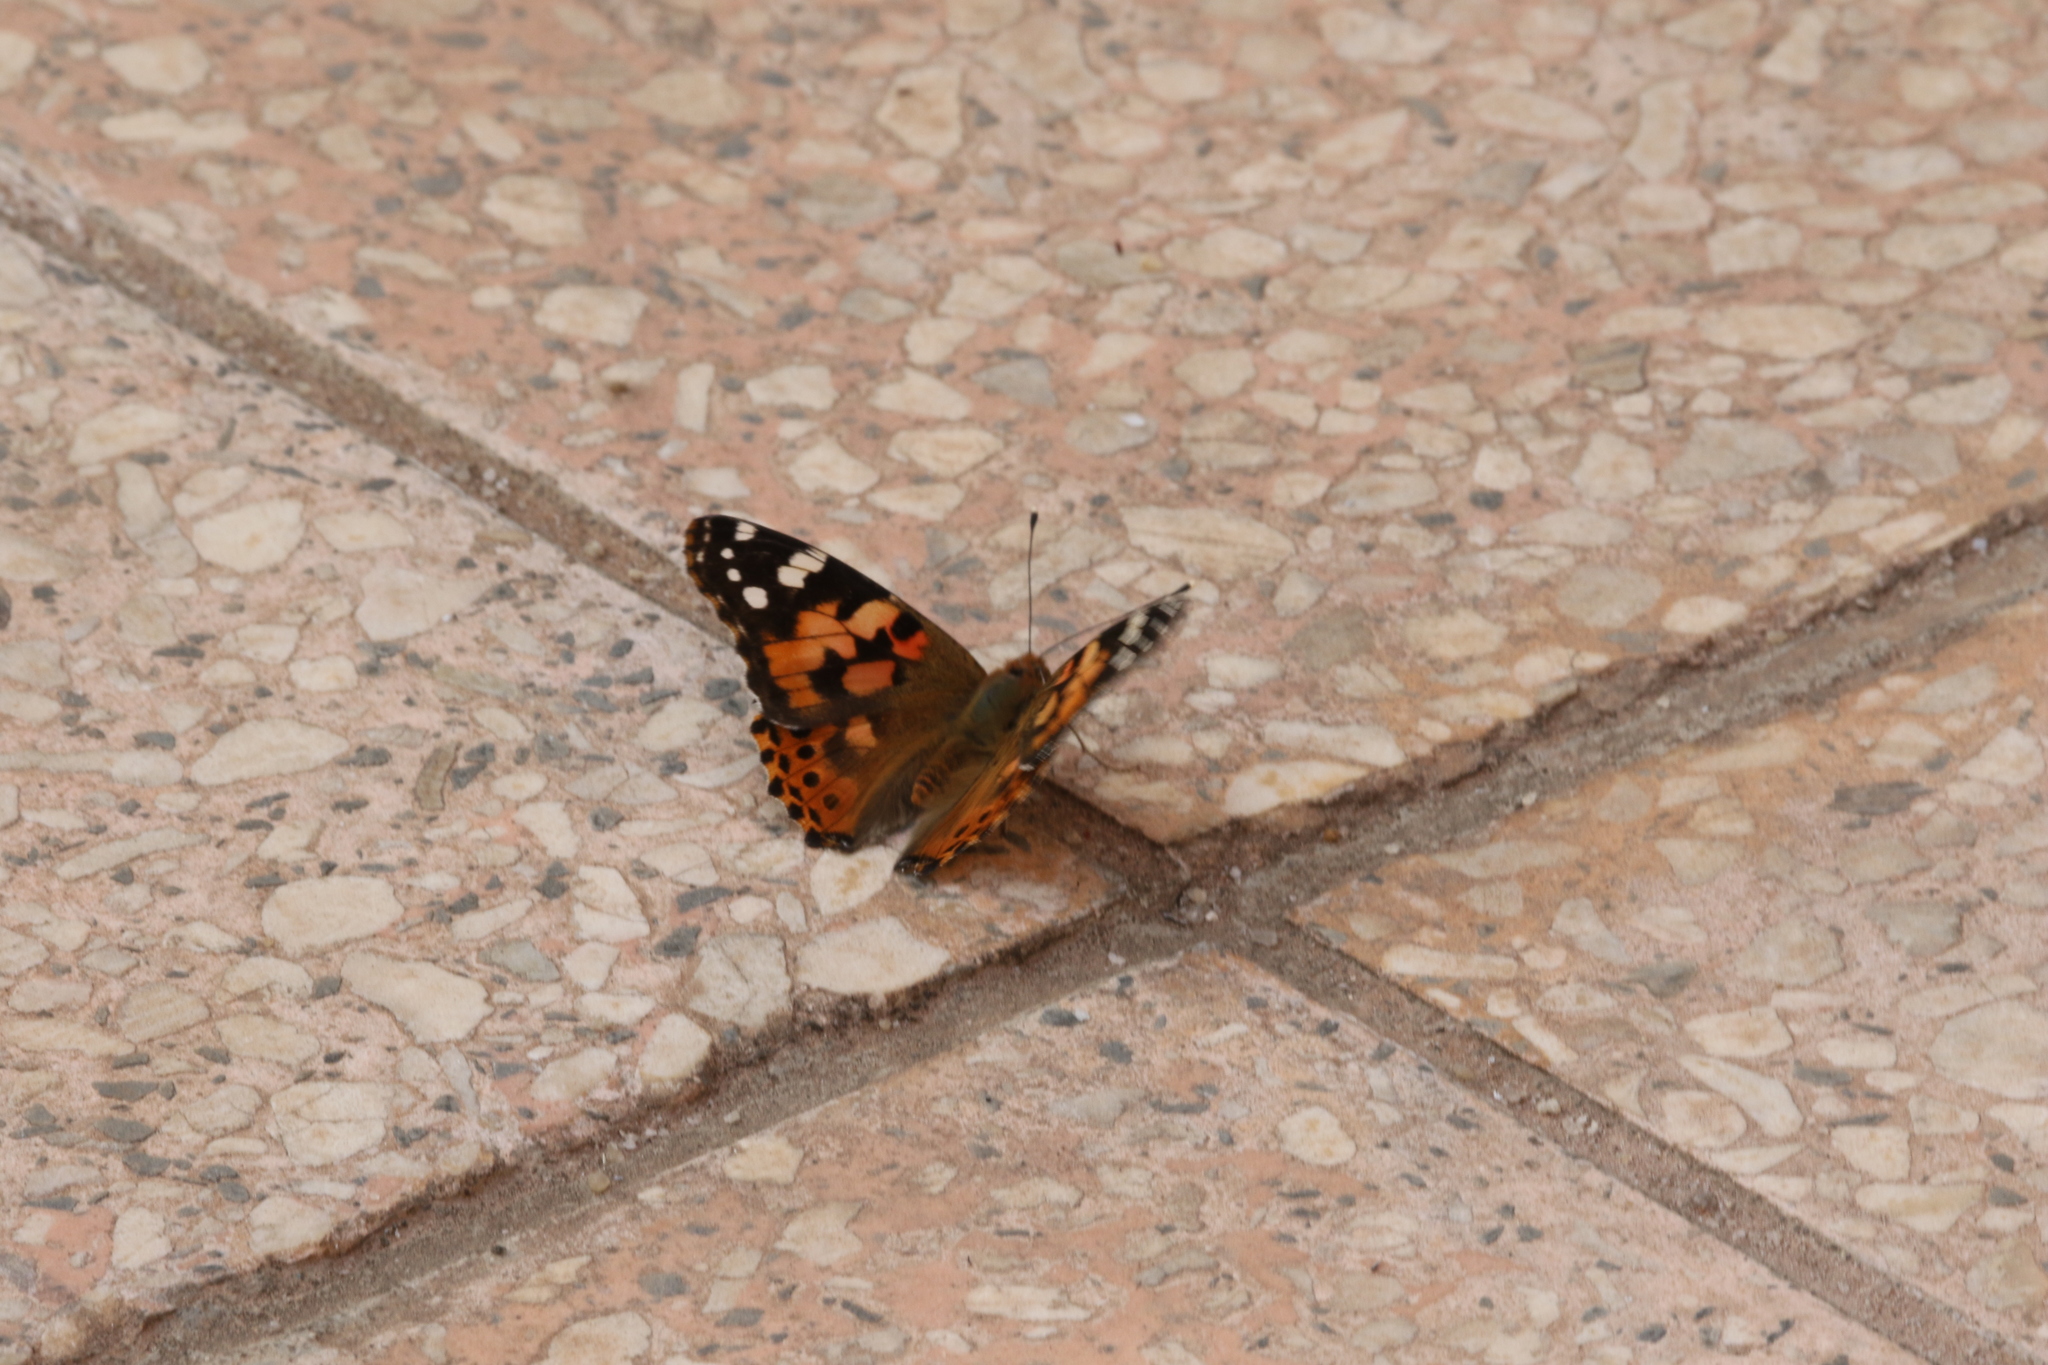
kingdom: Animalia
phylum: Arthropoda
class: Insecta
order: Lepidoptera
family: Nymphalidae
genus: Vanessa
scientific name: Vanessa cardui
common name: Painted lady
